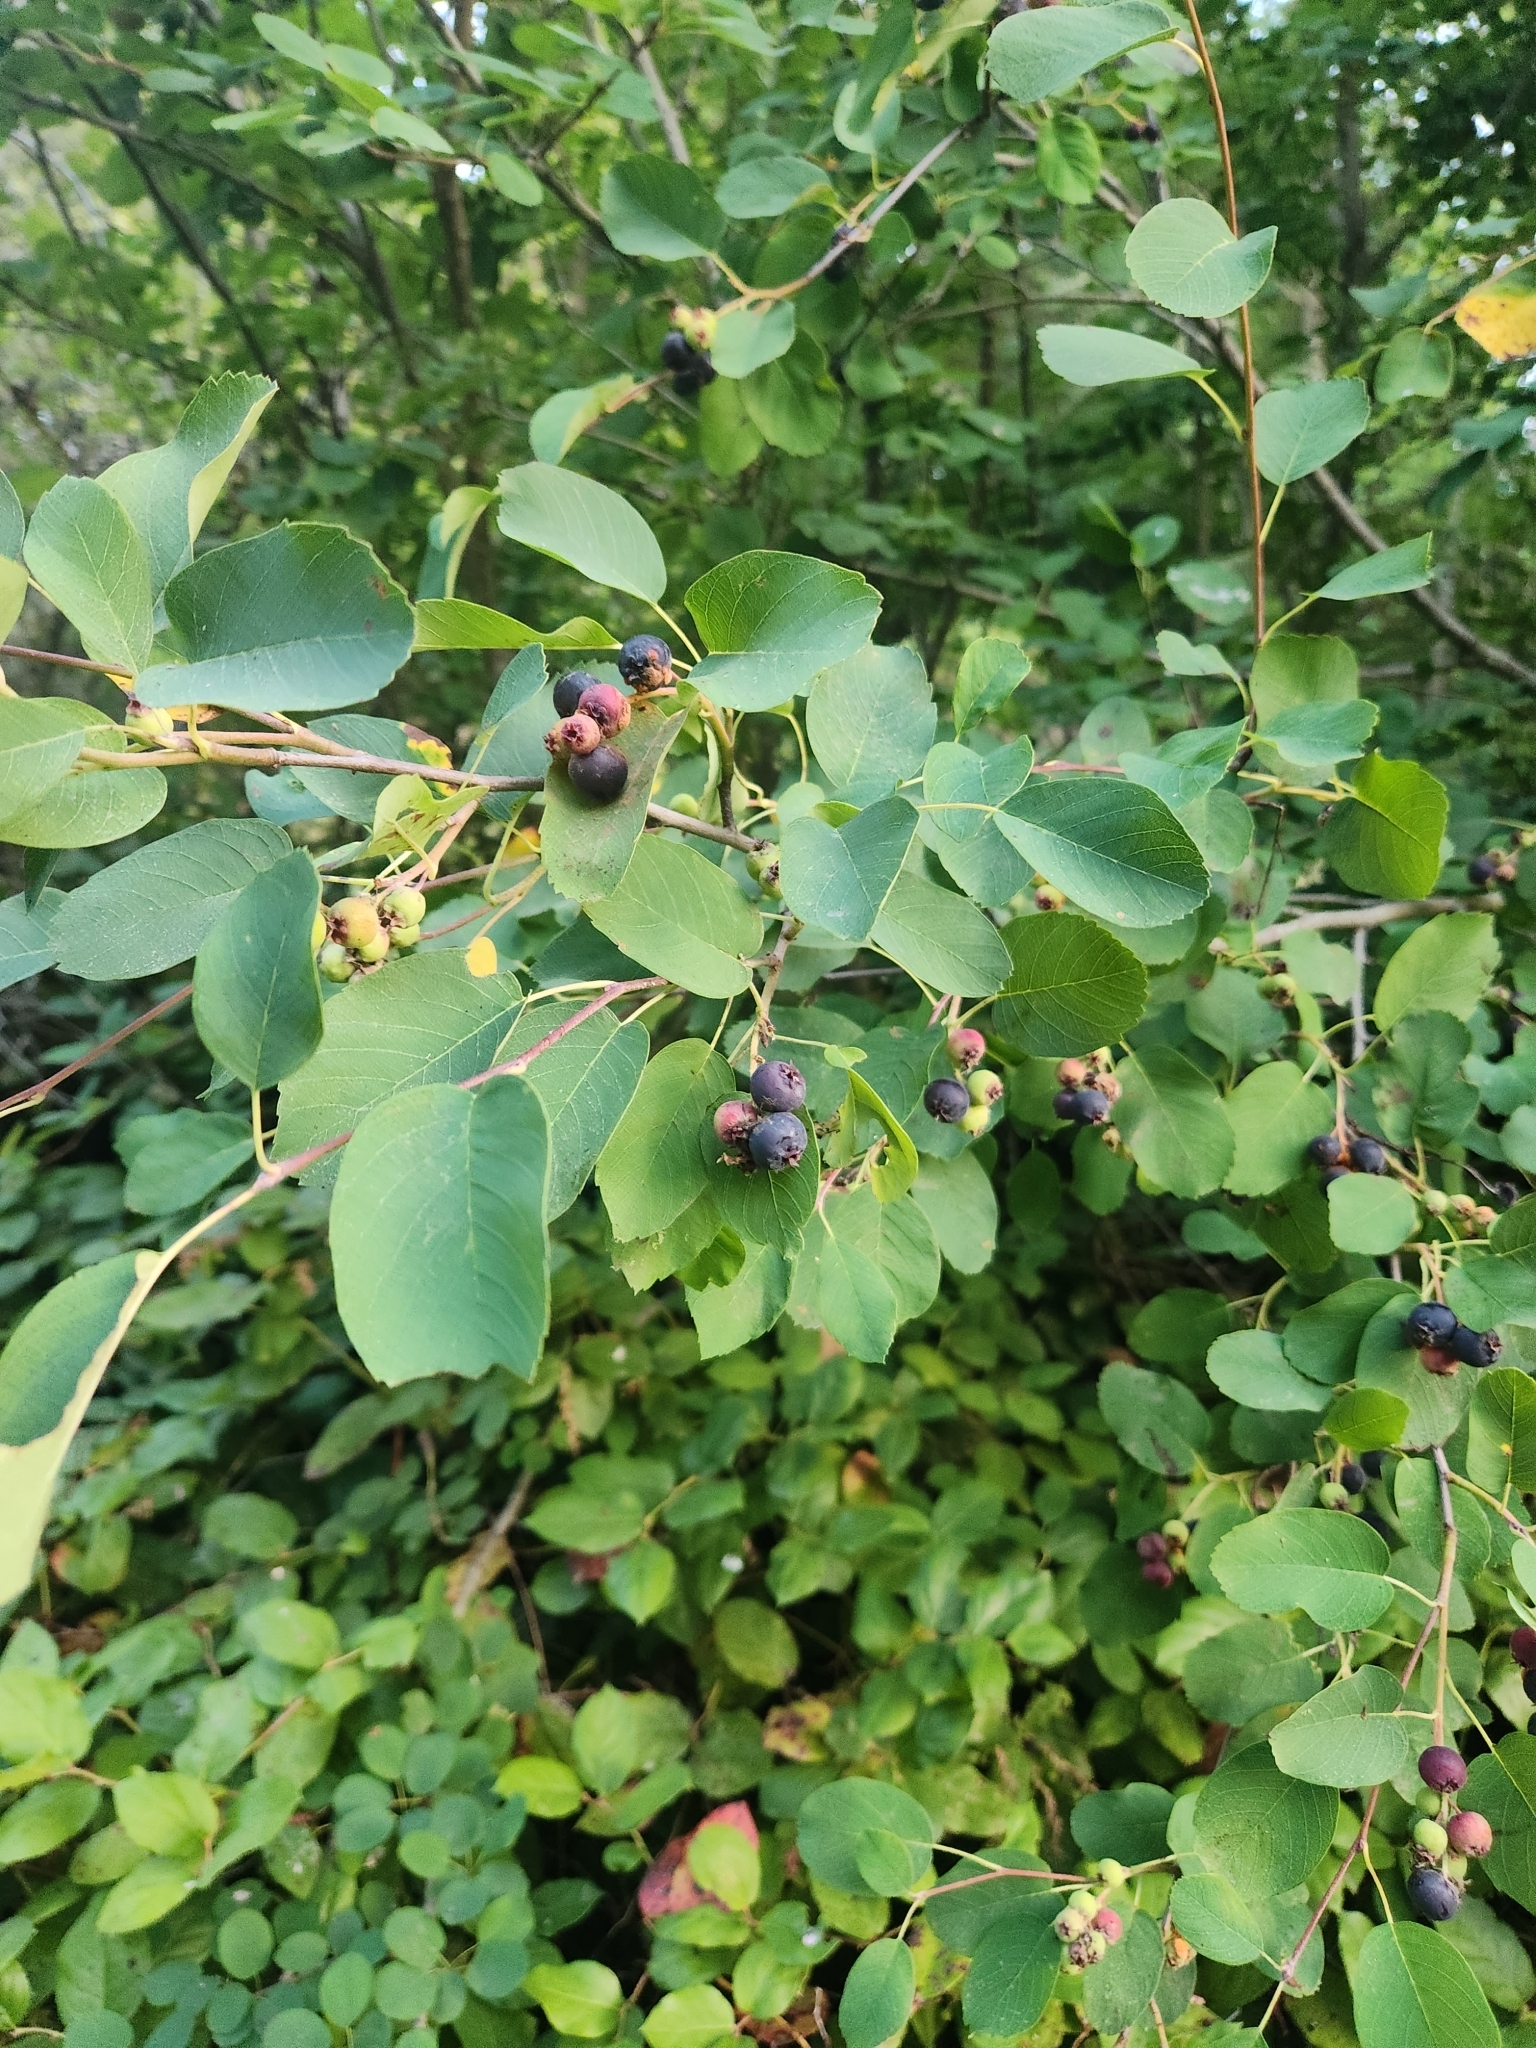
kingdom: Plantae
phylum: Tracheophyta
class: Magnoliopsida
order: Rosales
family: Rosaceae
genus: Amelanchier
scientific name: Amelanchier alnifolia
